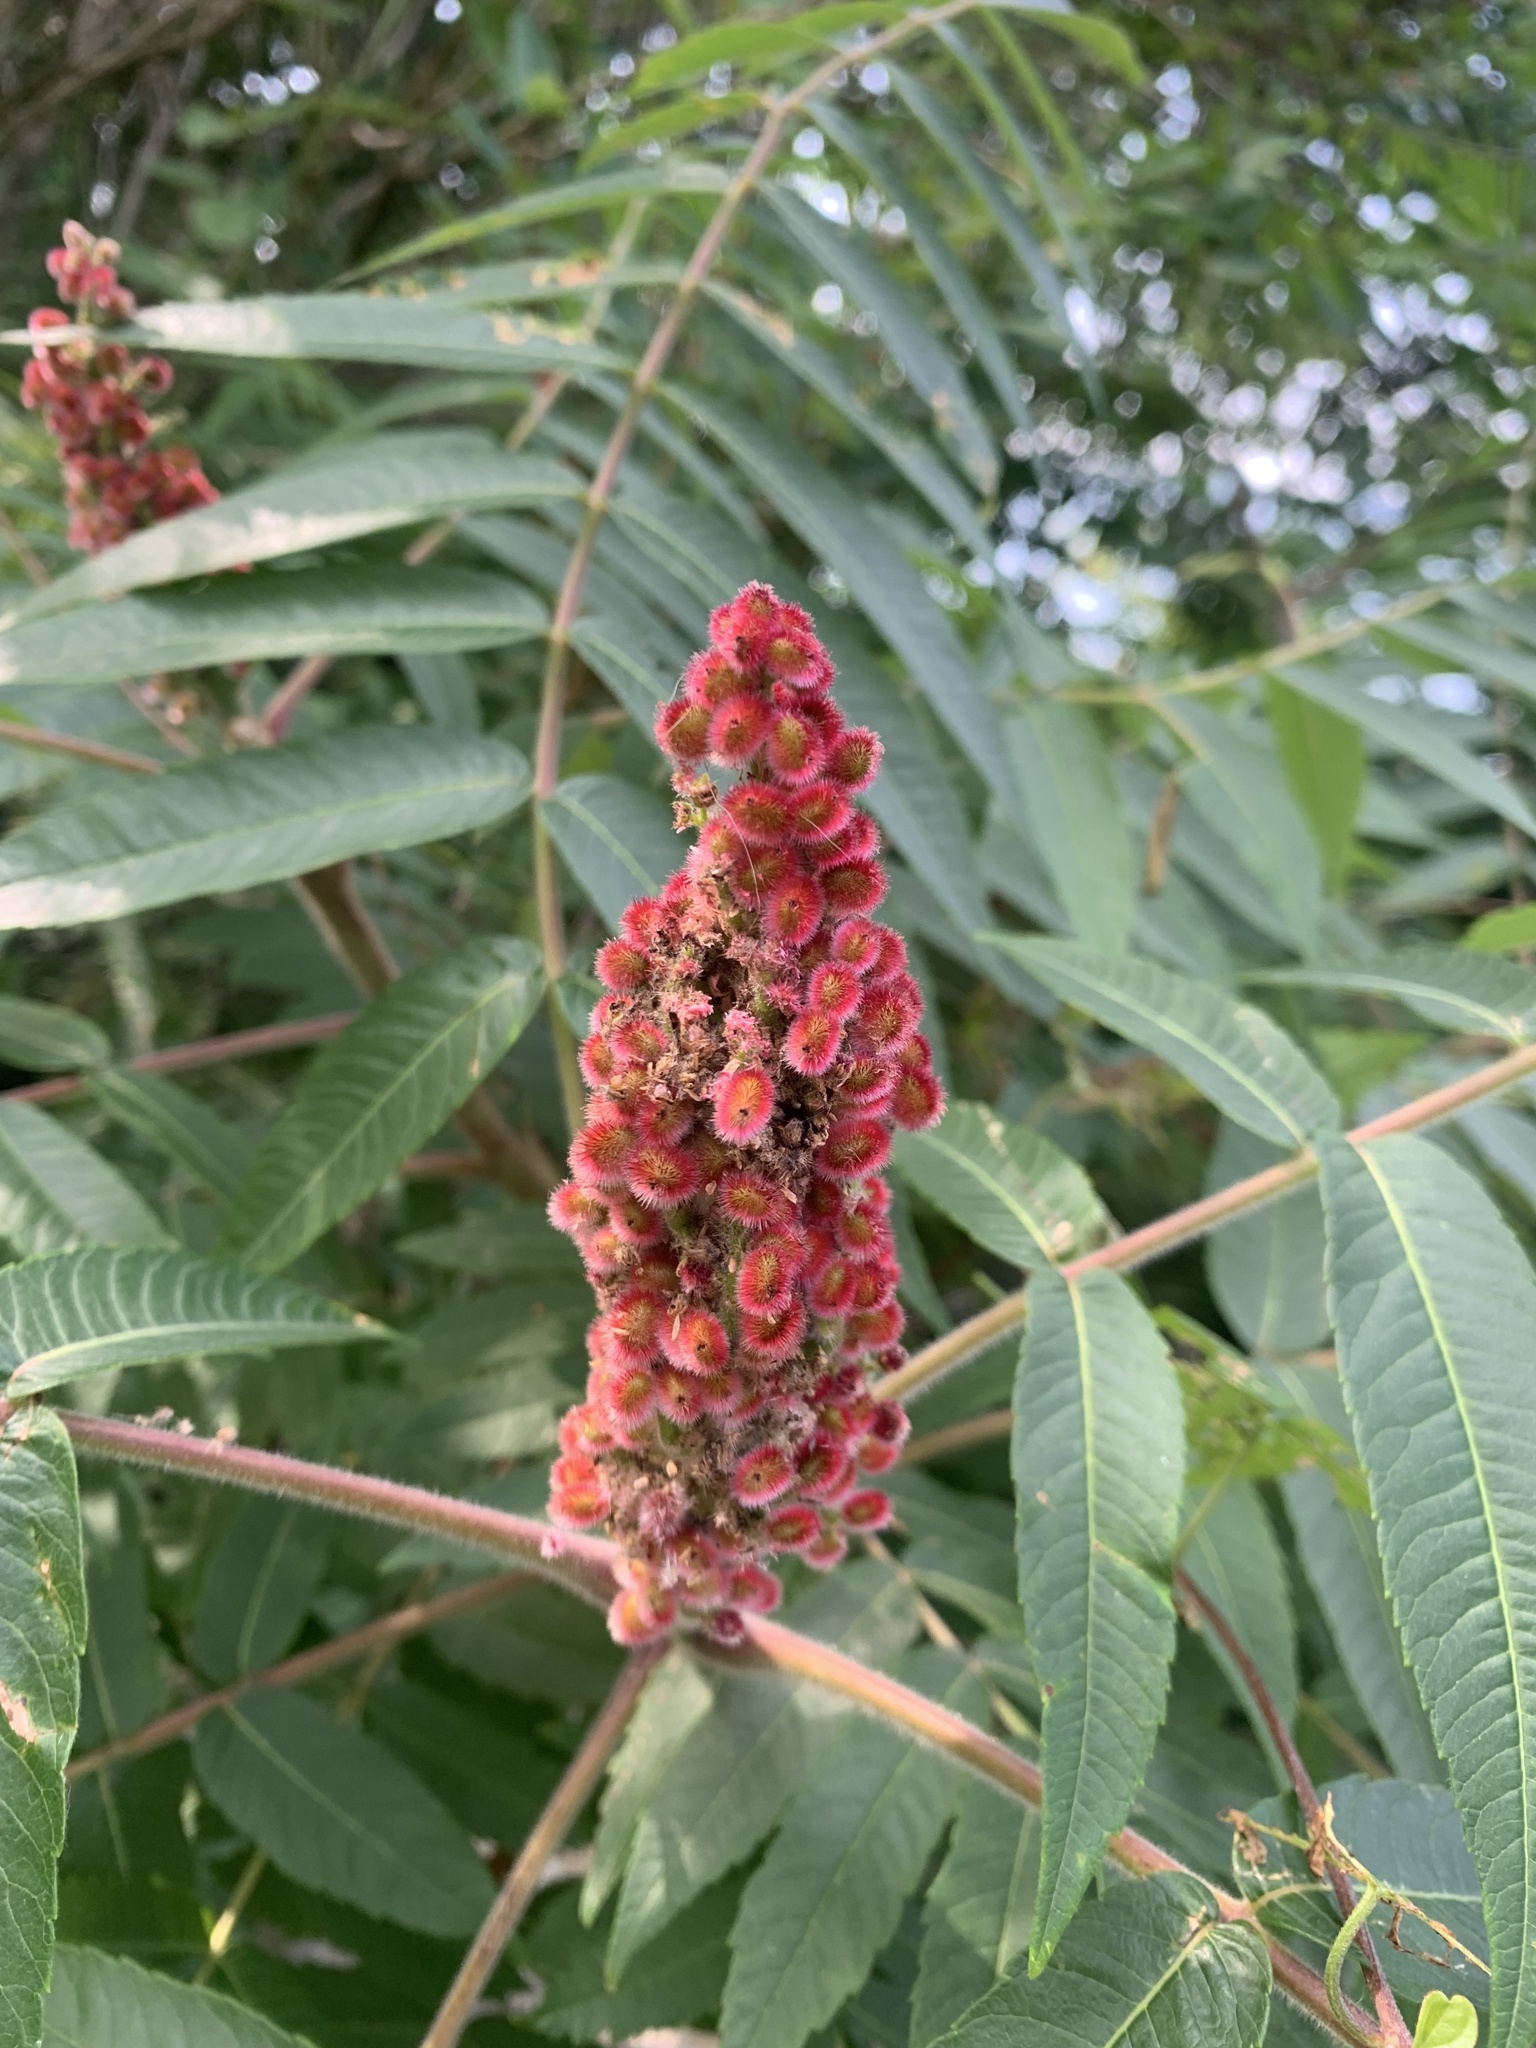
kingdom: Plantae
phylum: Tracheophyta
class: Magnoliopsida
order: Sapindales
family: Anacardiaceae
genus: Rhus
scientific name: Rhus typhina
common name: Staghorn sumac
